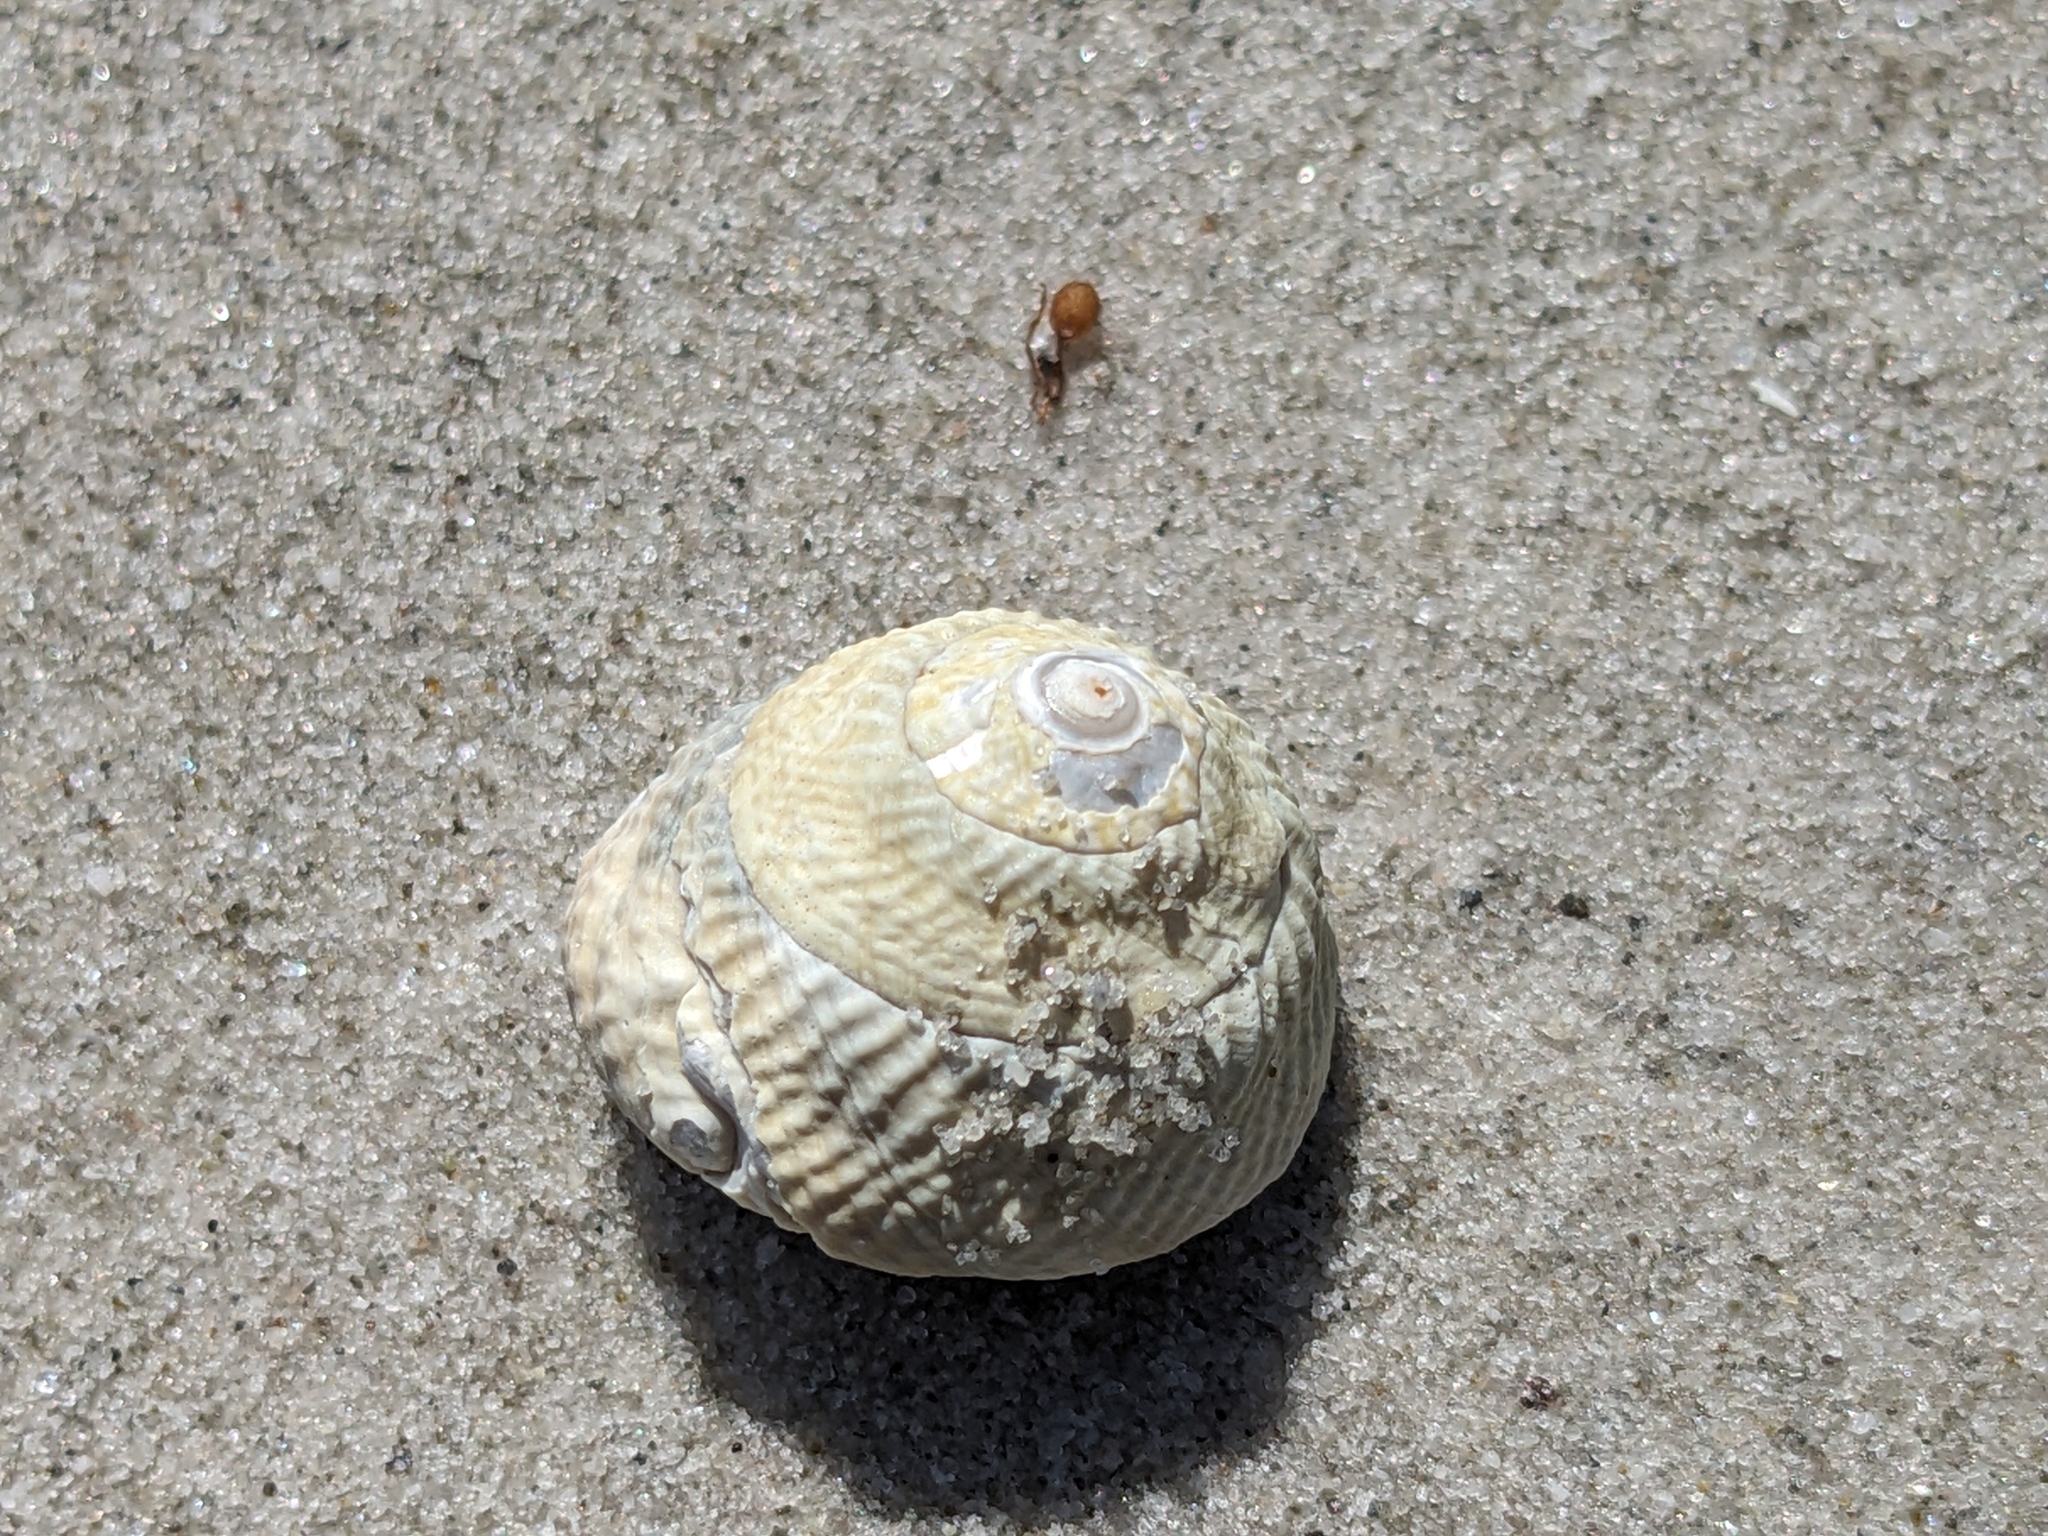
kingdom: Animalia
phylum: Mollusca
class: Gastropoda
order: Trochida
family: Turbinidae
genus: Bellastraea
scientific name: Bellastraea aurea
